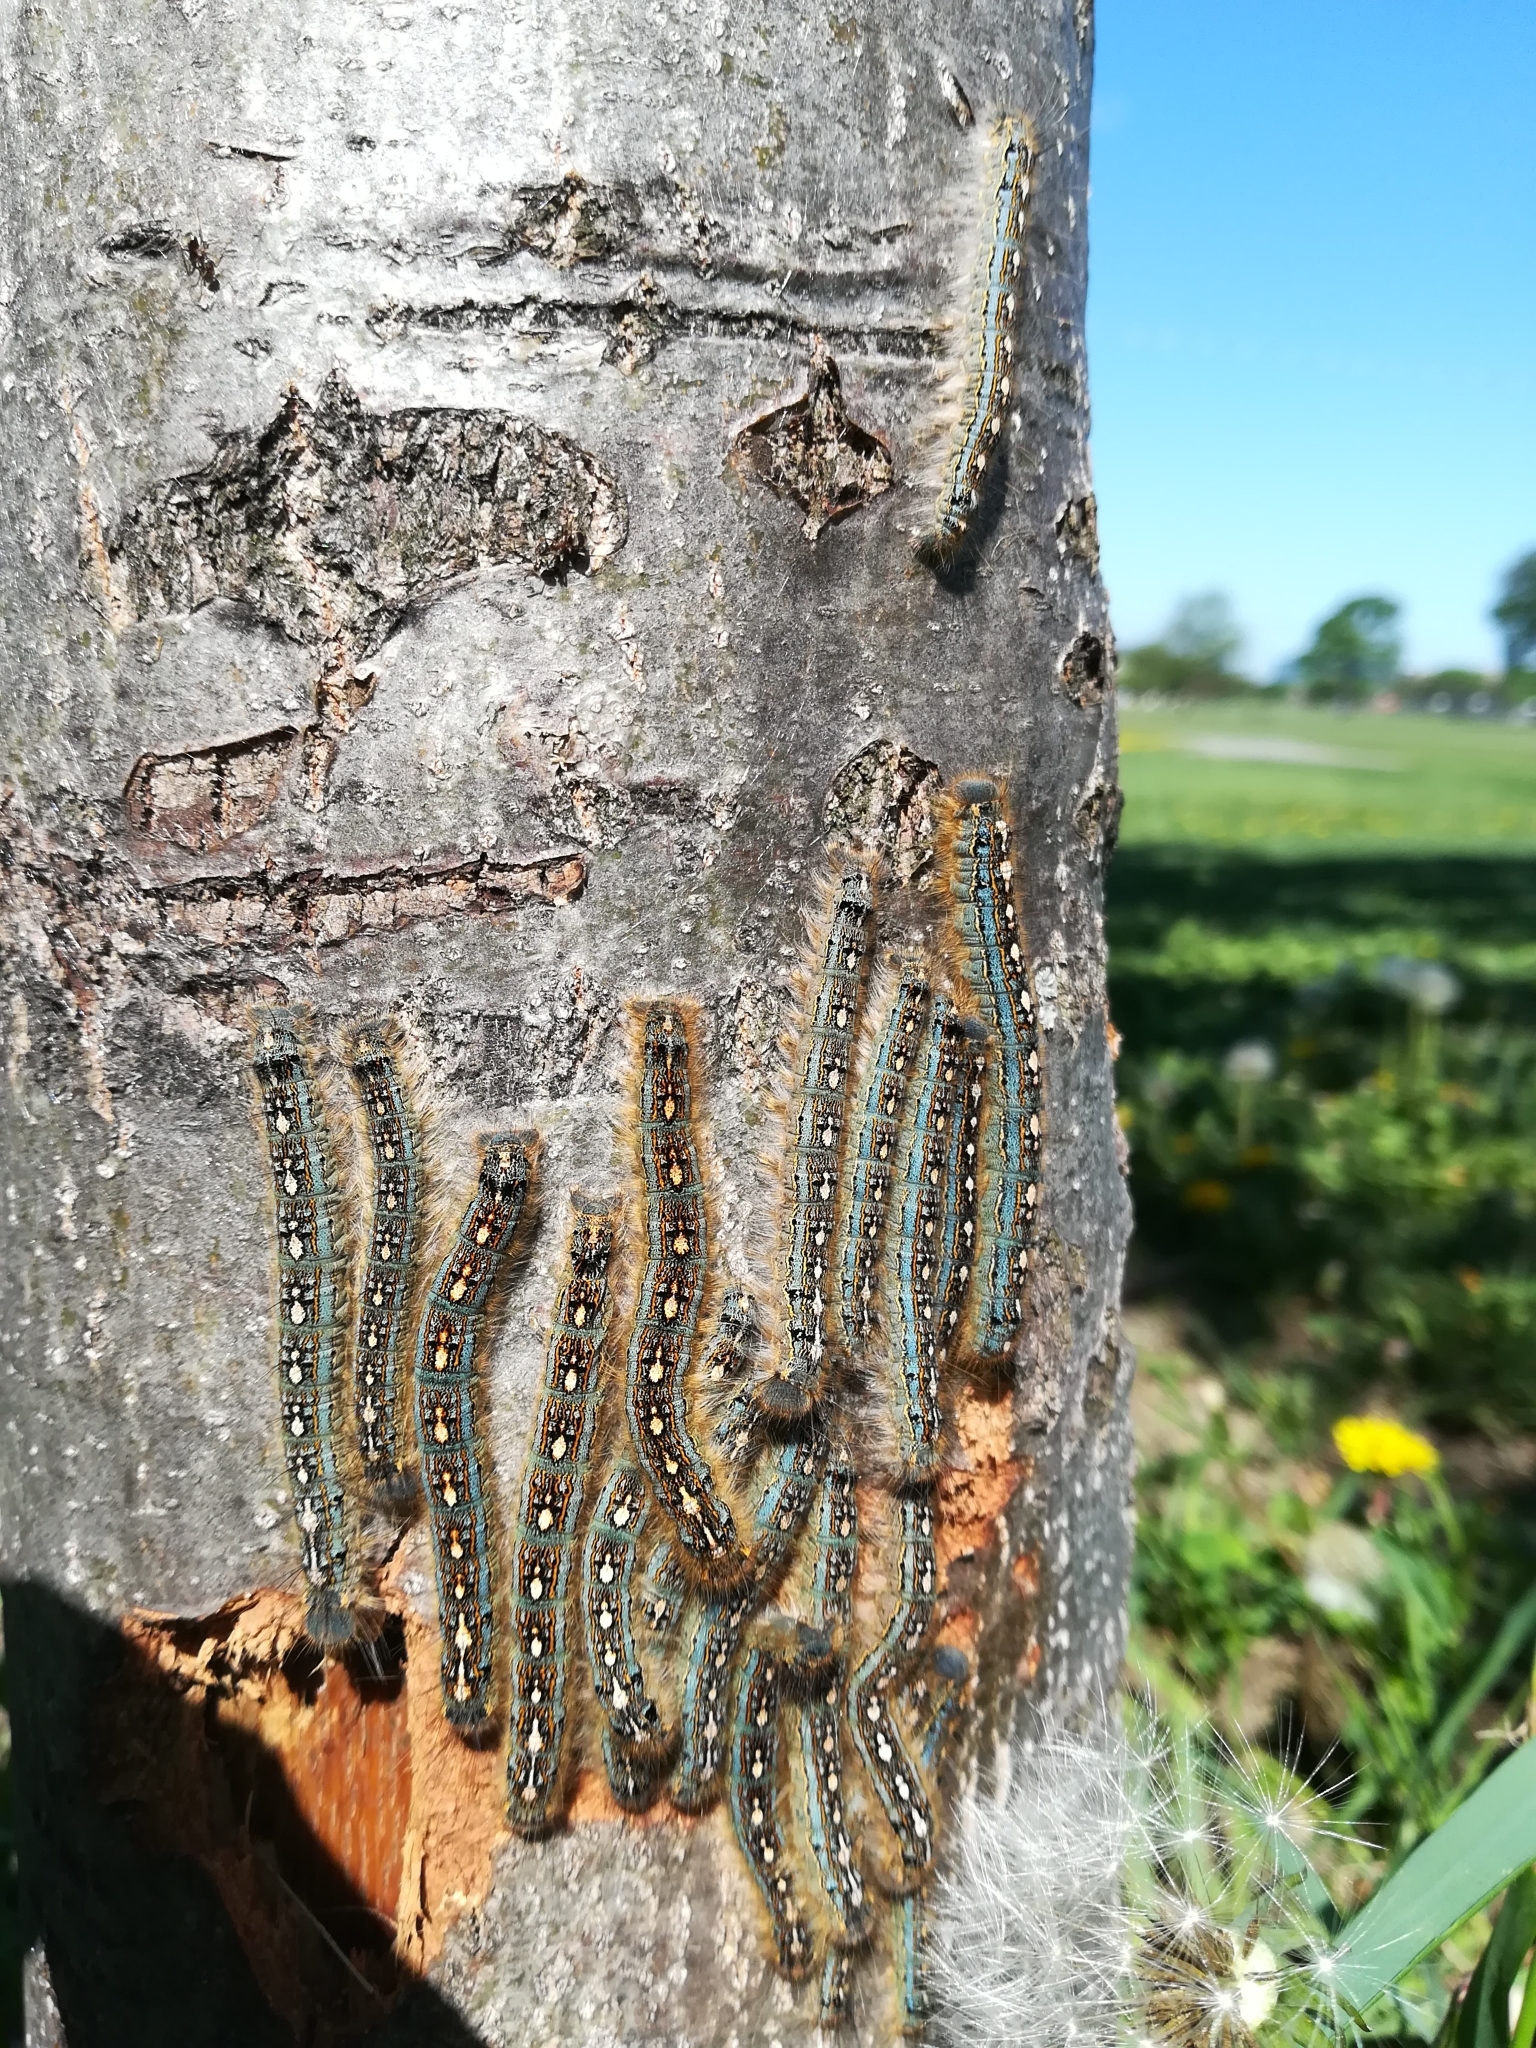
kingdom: Animalia
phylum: Arthropoda
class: Insecta
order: Lepidoptera
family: Lasiocampidae
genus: Malacosoma
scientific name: Malacosoma disstria
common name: Forest tent caterpillar
